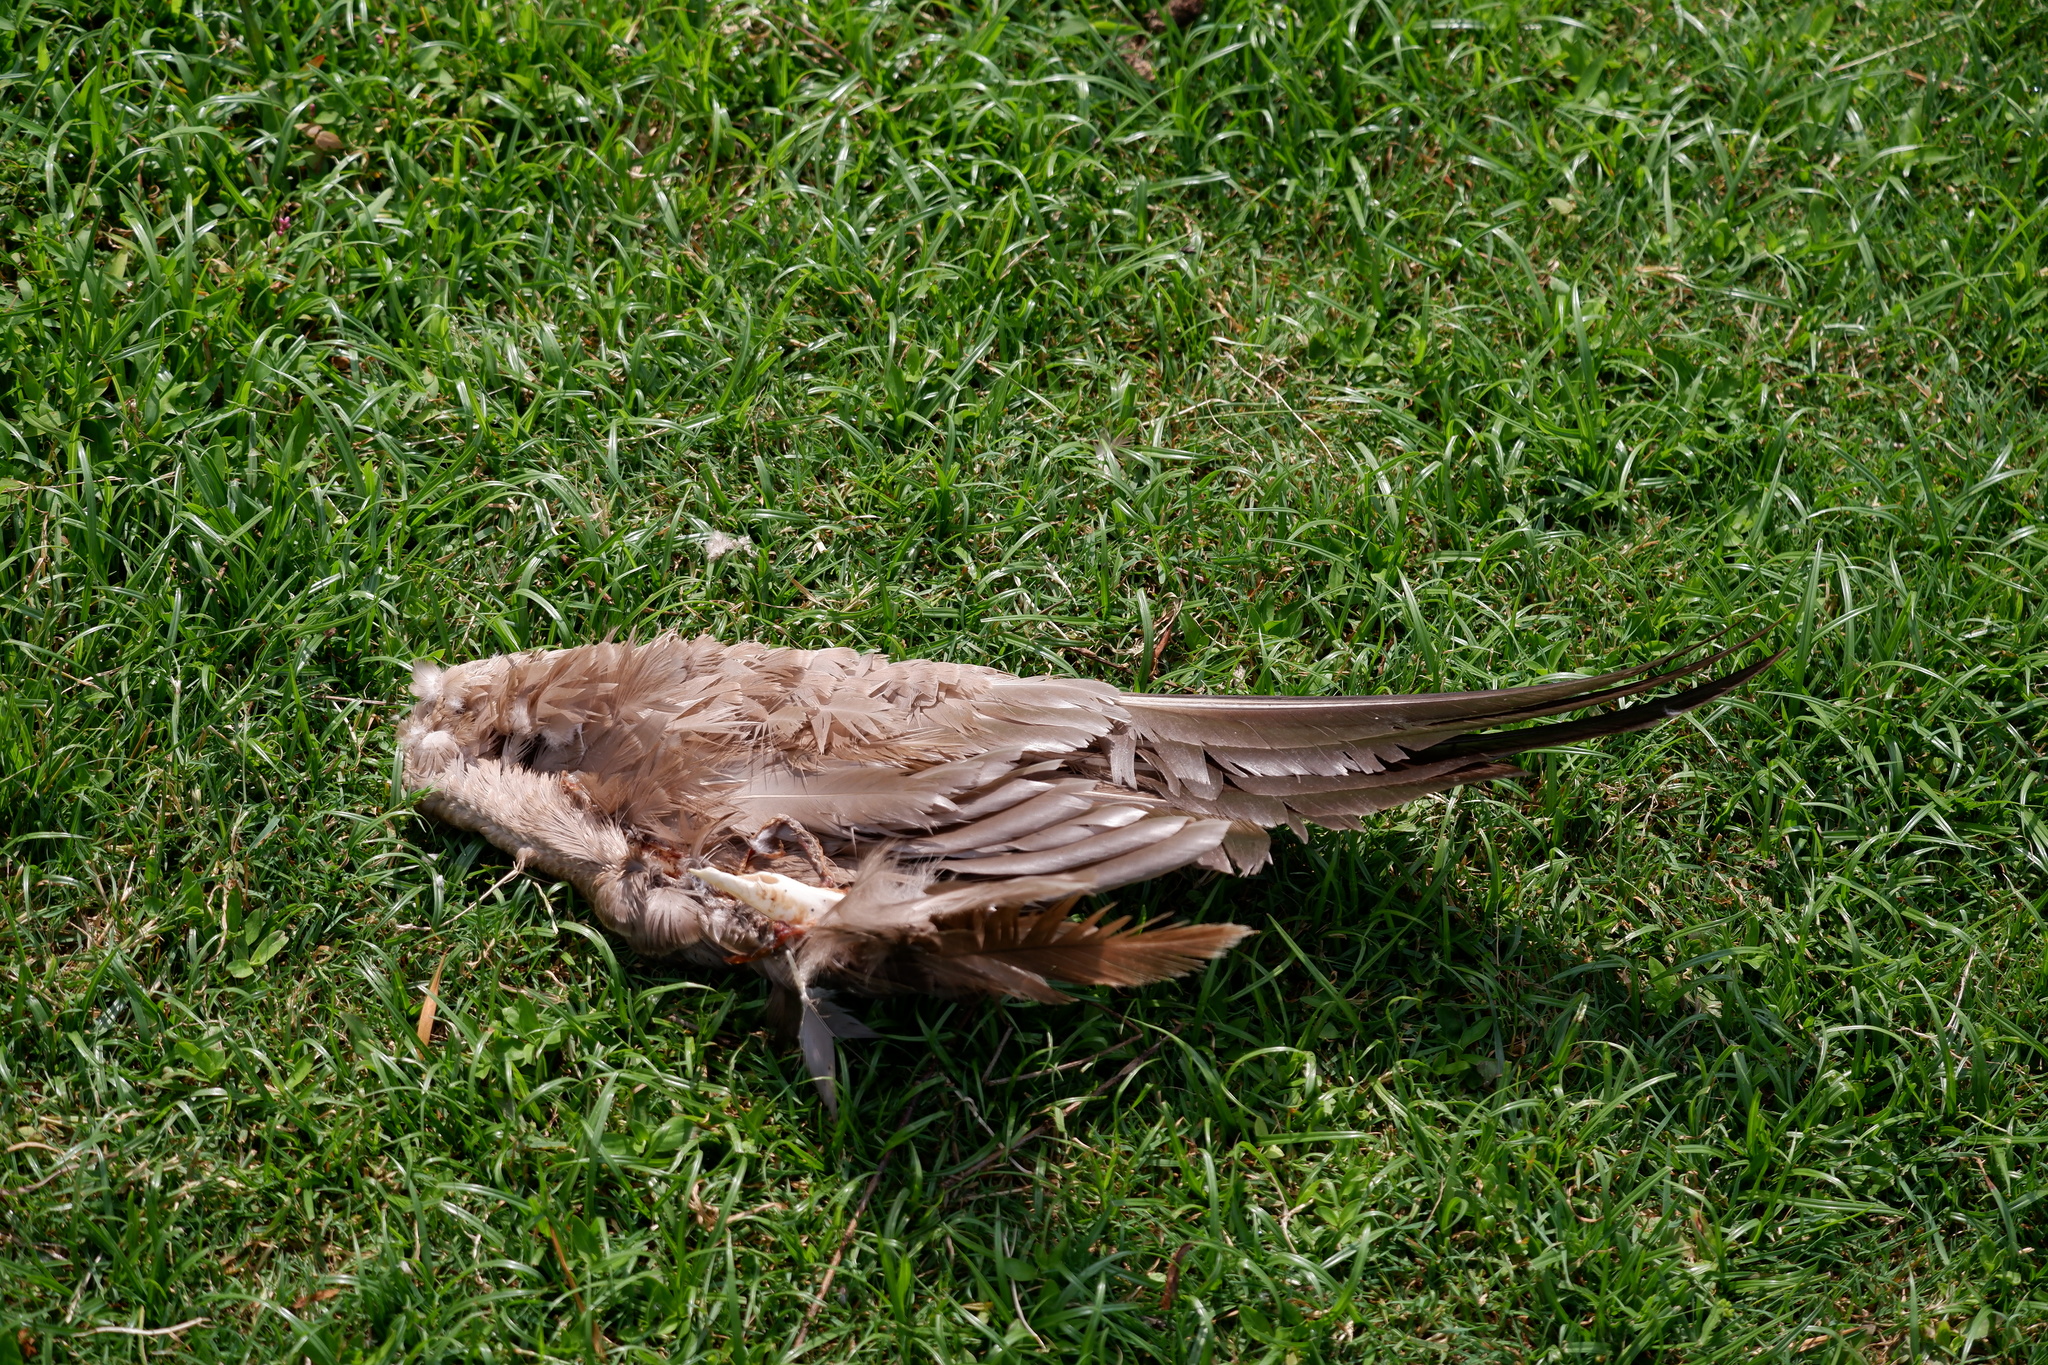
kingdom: Animalia
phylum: Chordata
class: Aves
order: Anseriformes
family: Anatidae
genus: Branta
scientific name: Branta canadensis
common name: Canada goose
